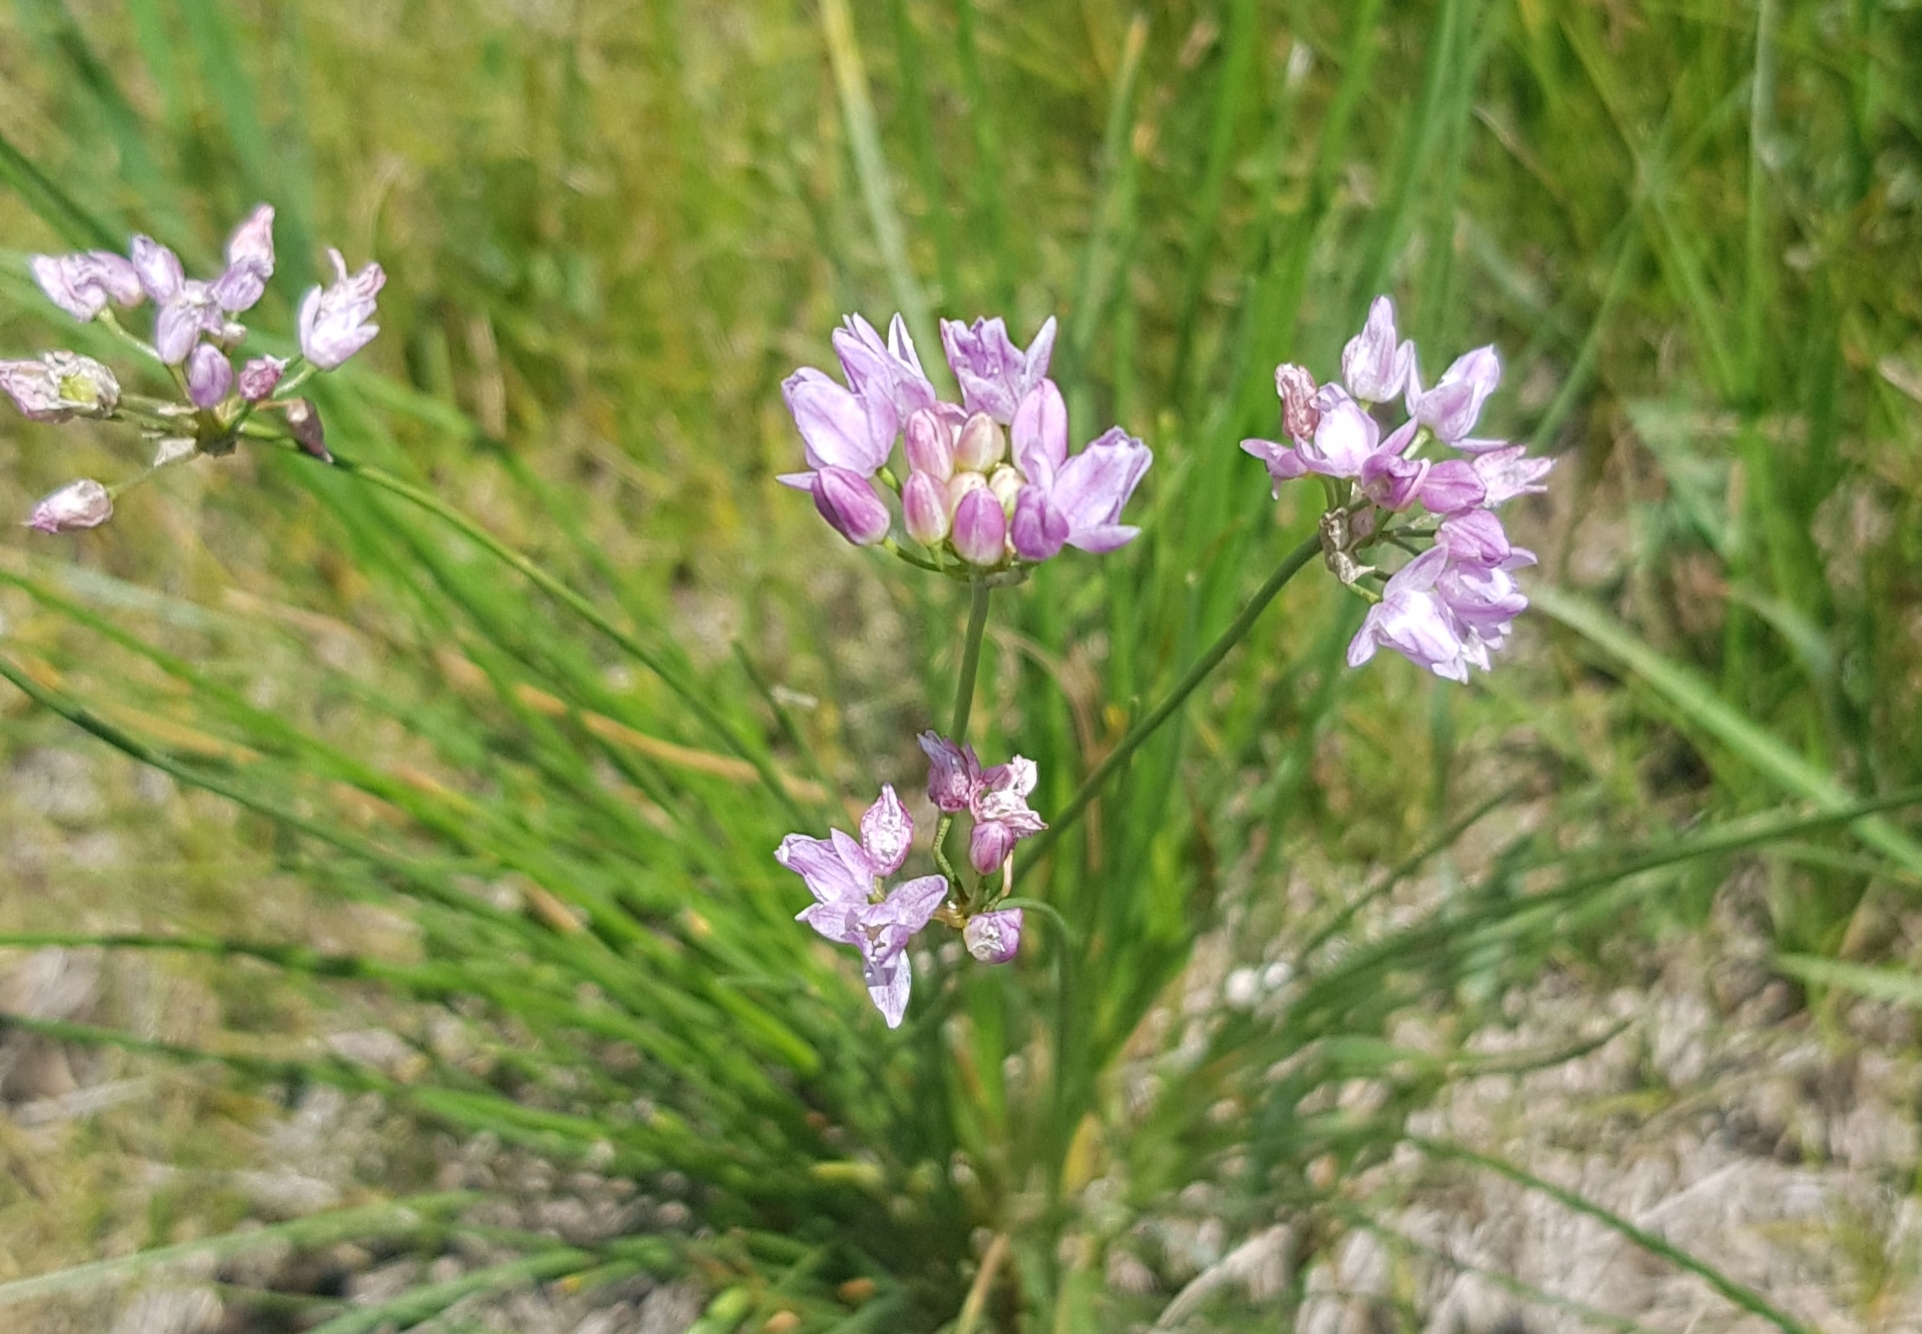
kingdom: Plantae
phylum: Tracheophyta
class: Liliopsida
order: Asparagales
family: Amaryllidaceae
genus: Allium
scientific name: Allium anisopodium
